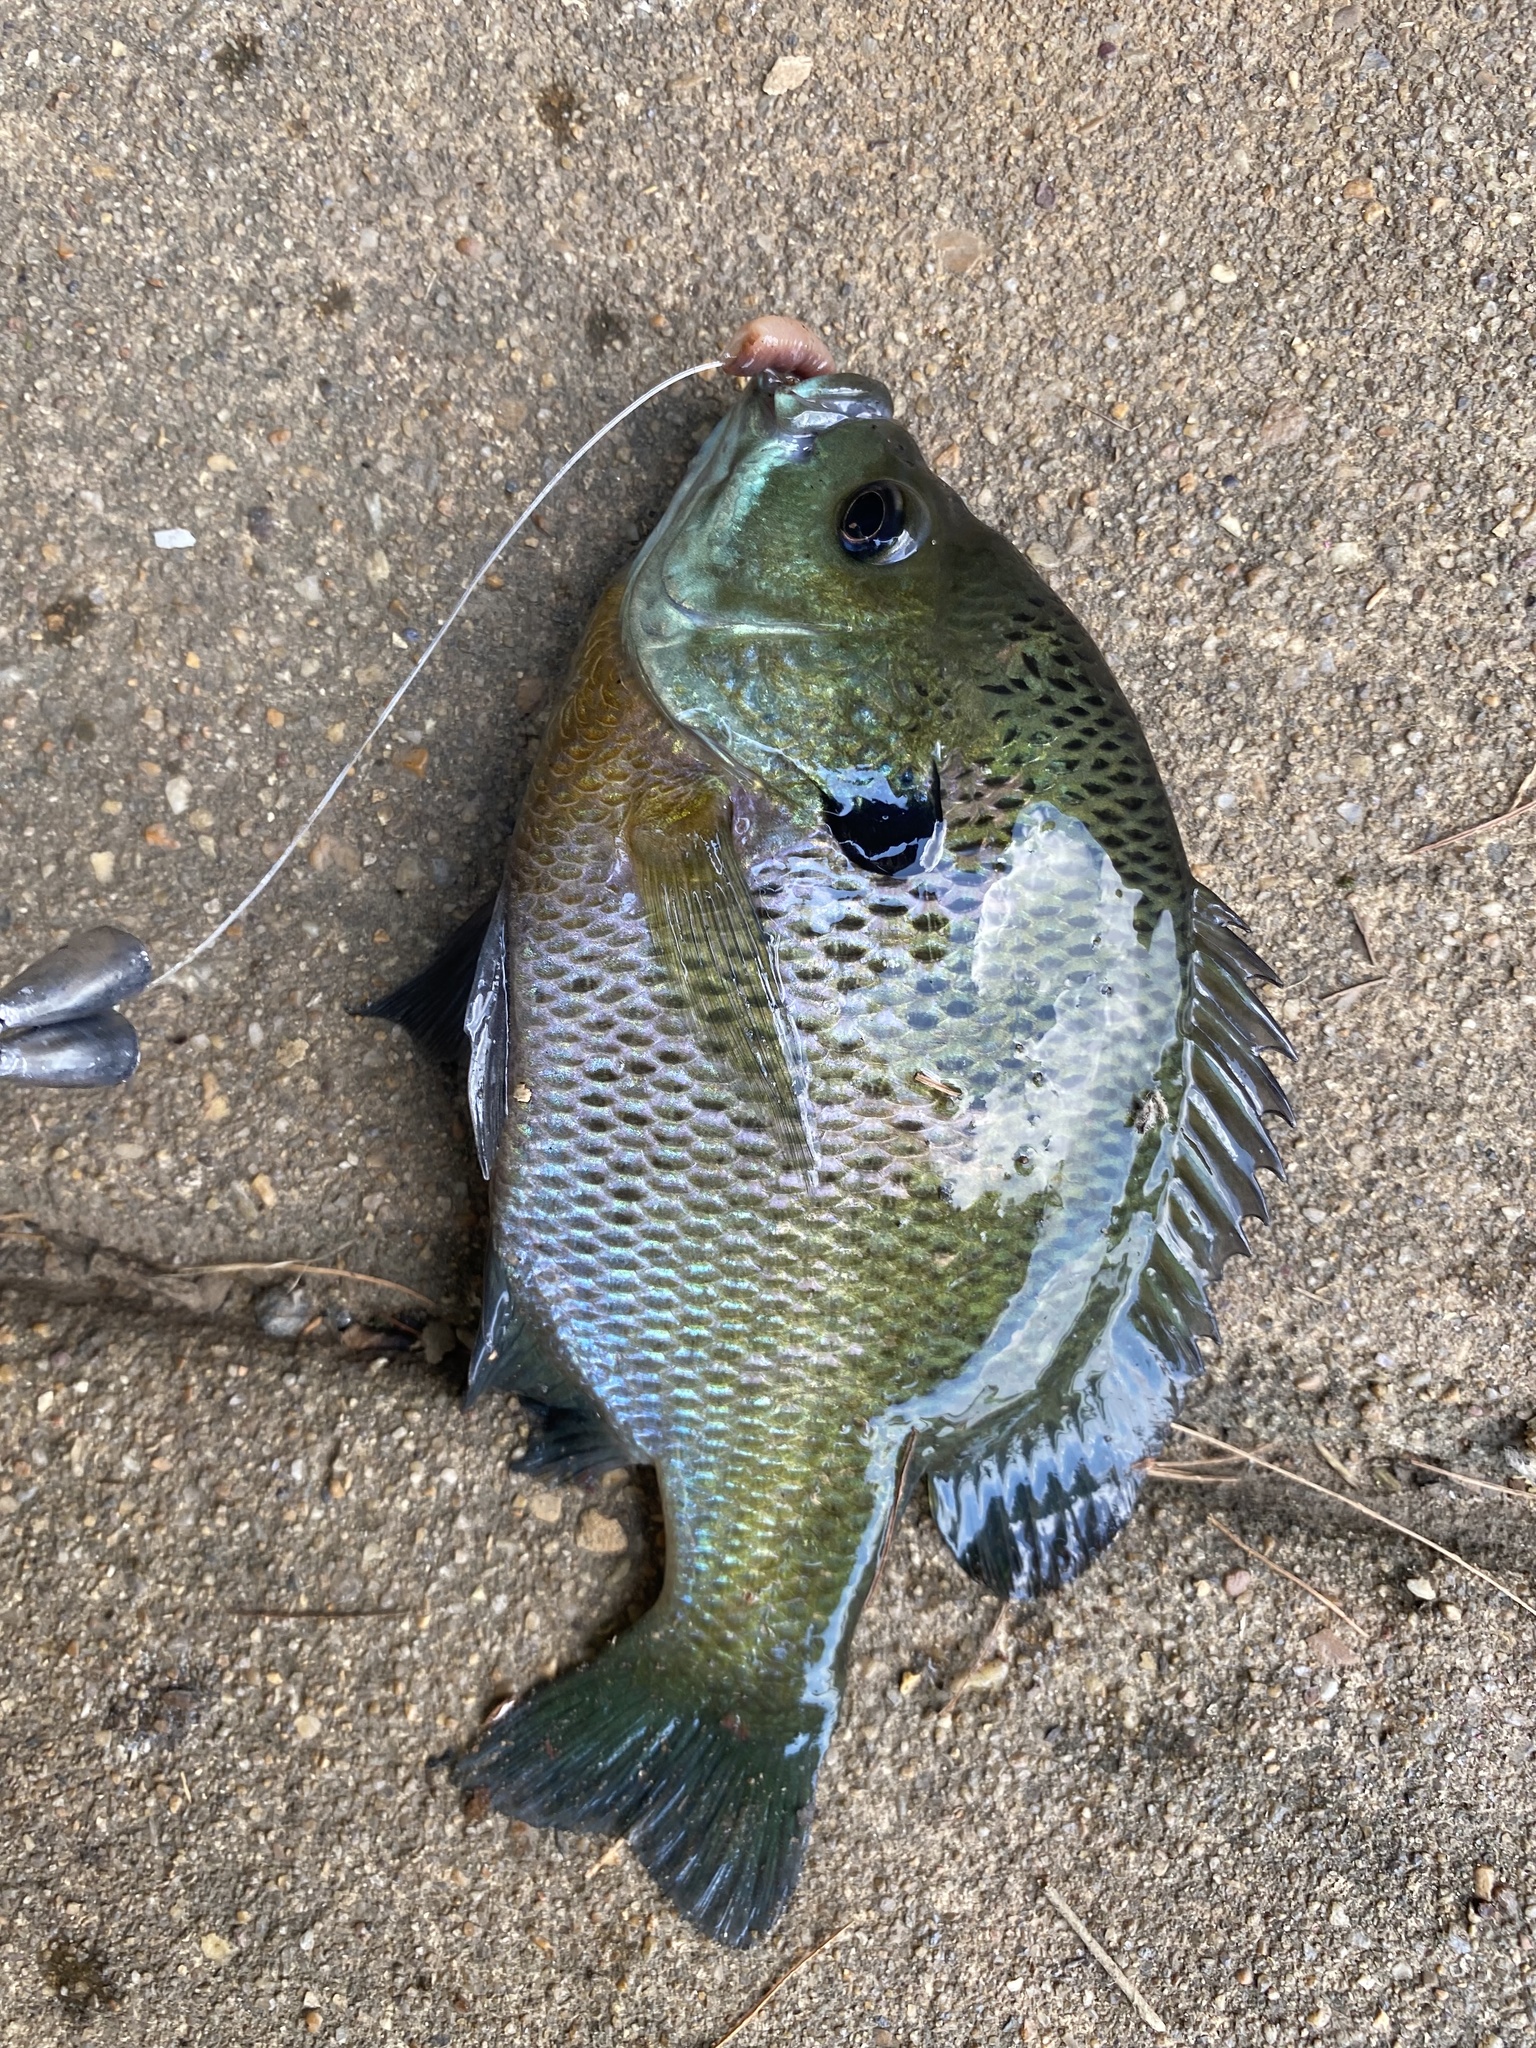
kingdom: Animalia
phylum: Chordata
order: Perciformes
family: Centrarchidae
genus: Lepomis
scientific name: Lepomis macrochirus
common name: Bluegill
